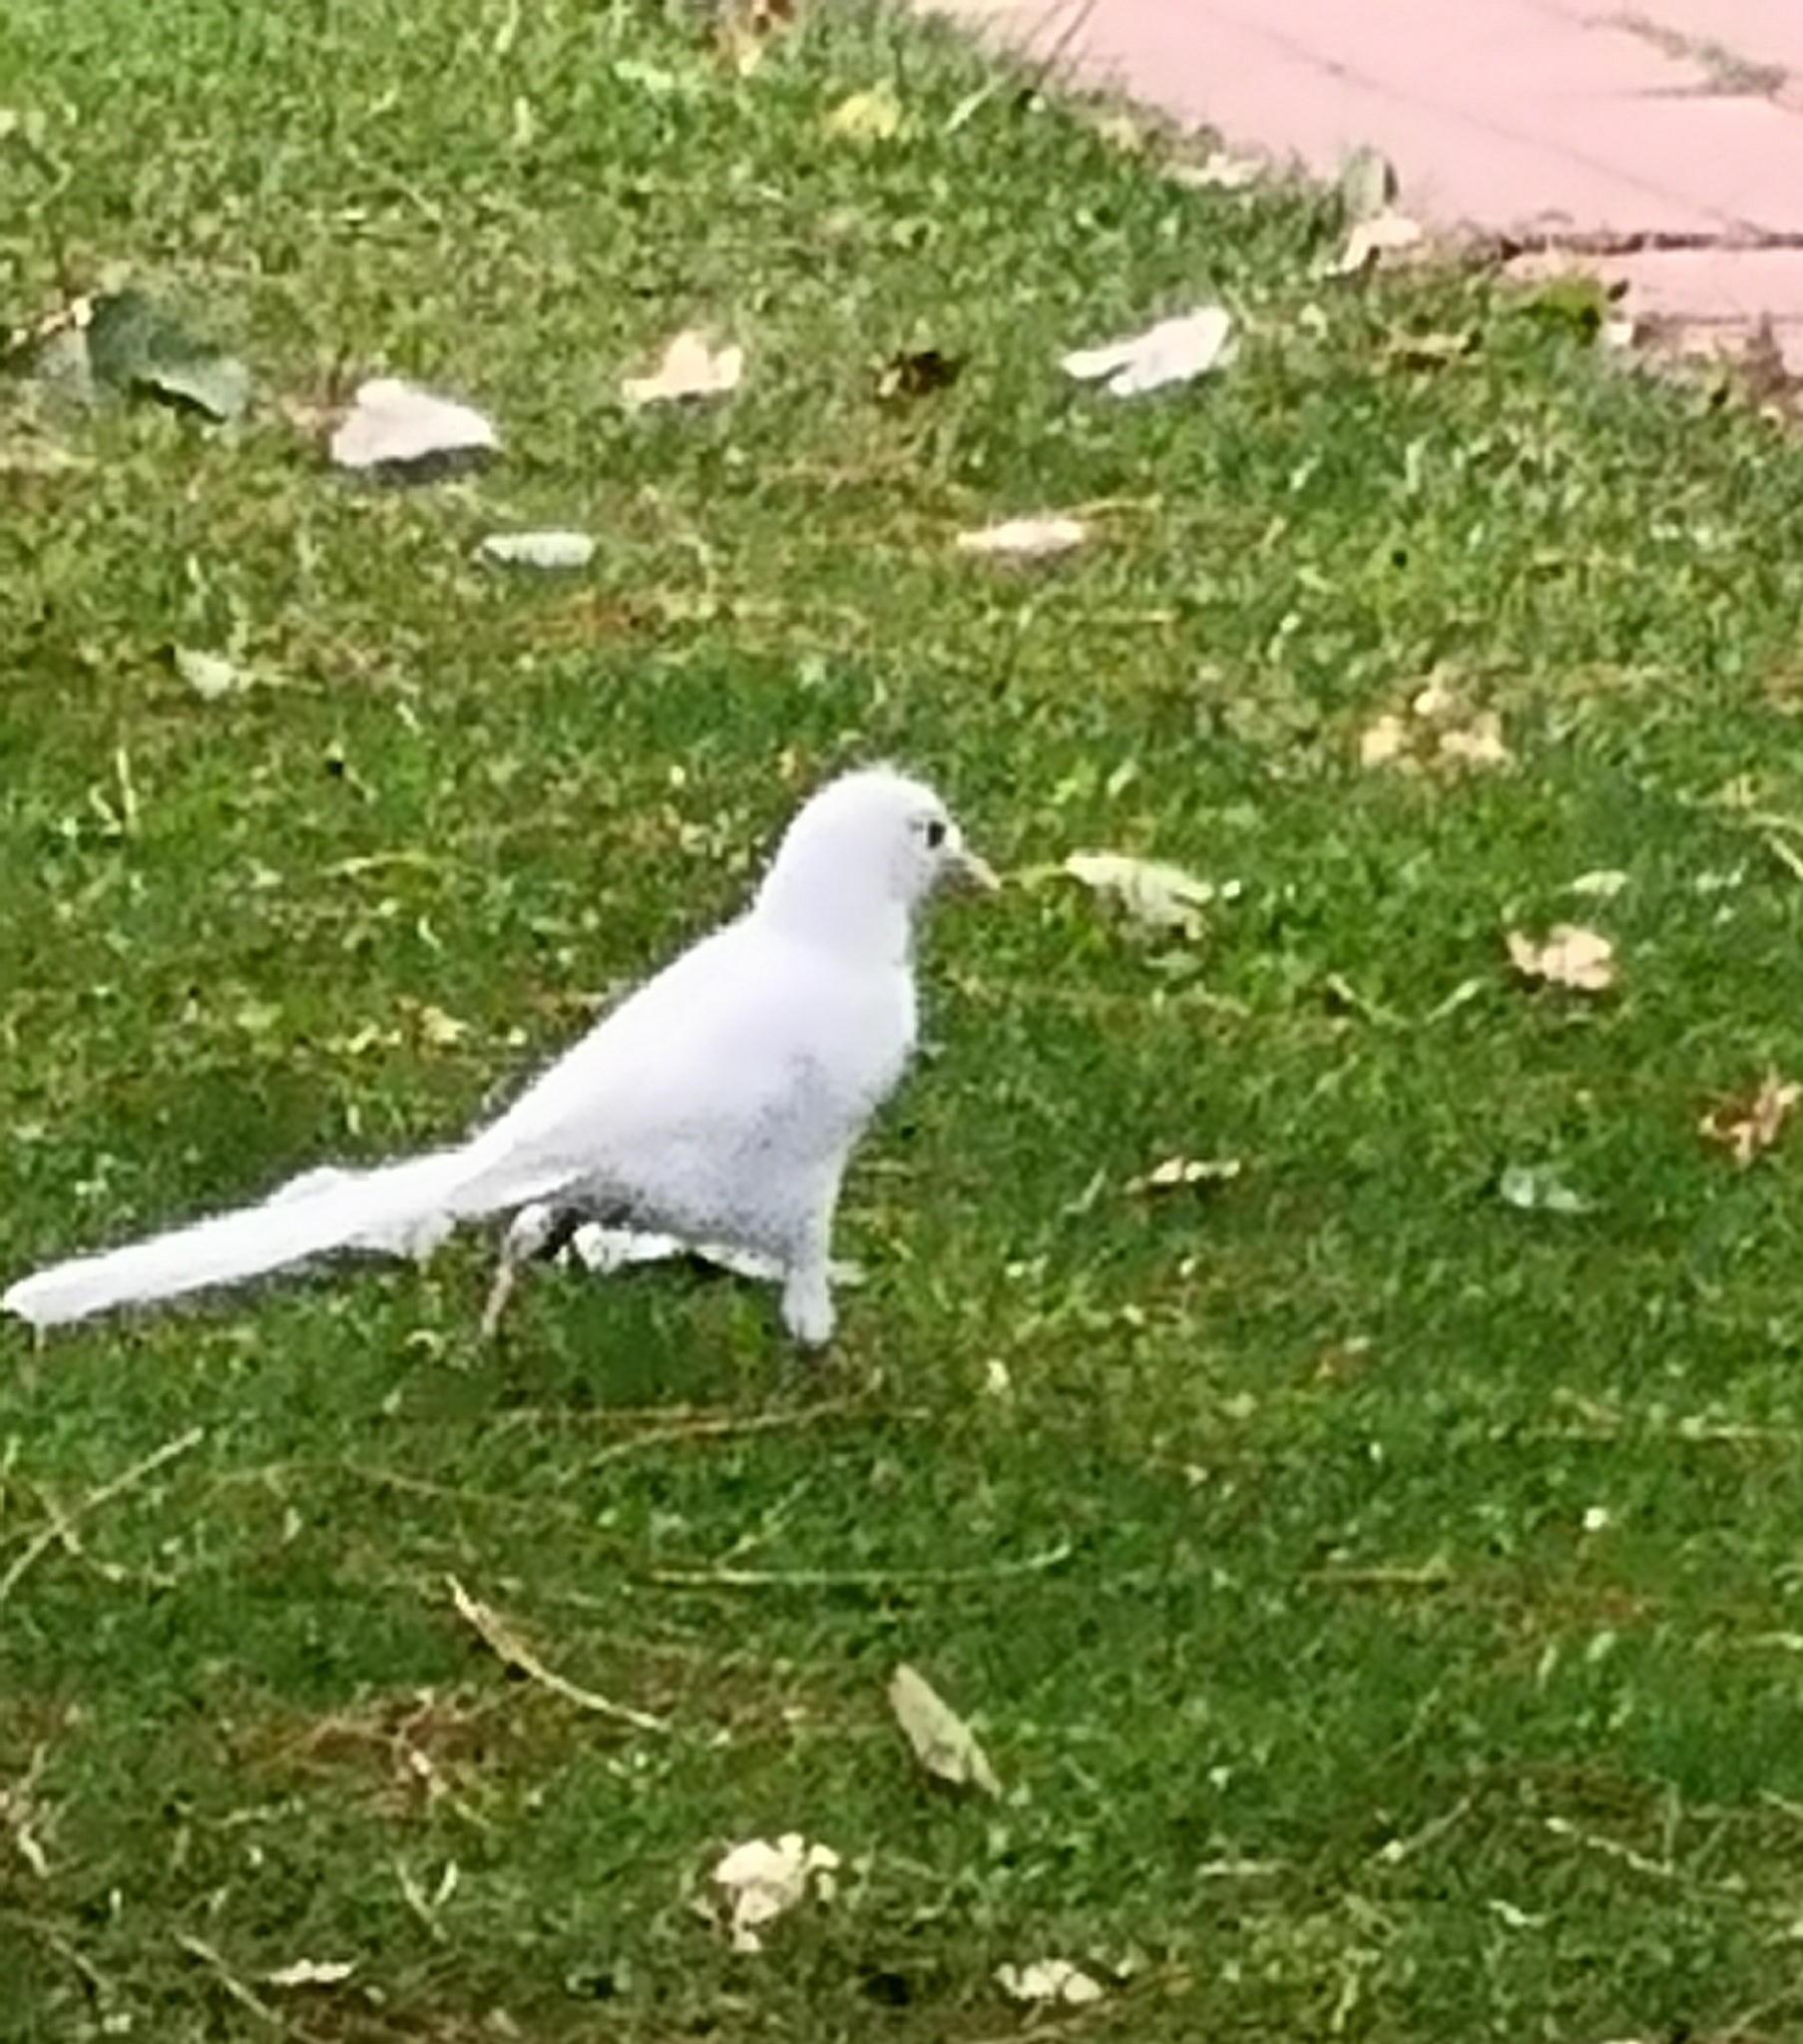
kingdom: Animalia
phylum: Chordata
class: Aves
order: Passeriformes
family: Corvidae
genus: Pica
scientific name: Pica pica
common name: Eurasian magpie
